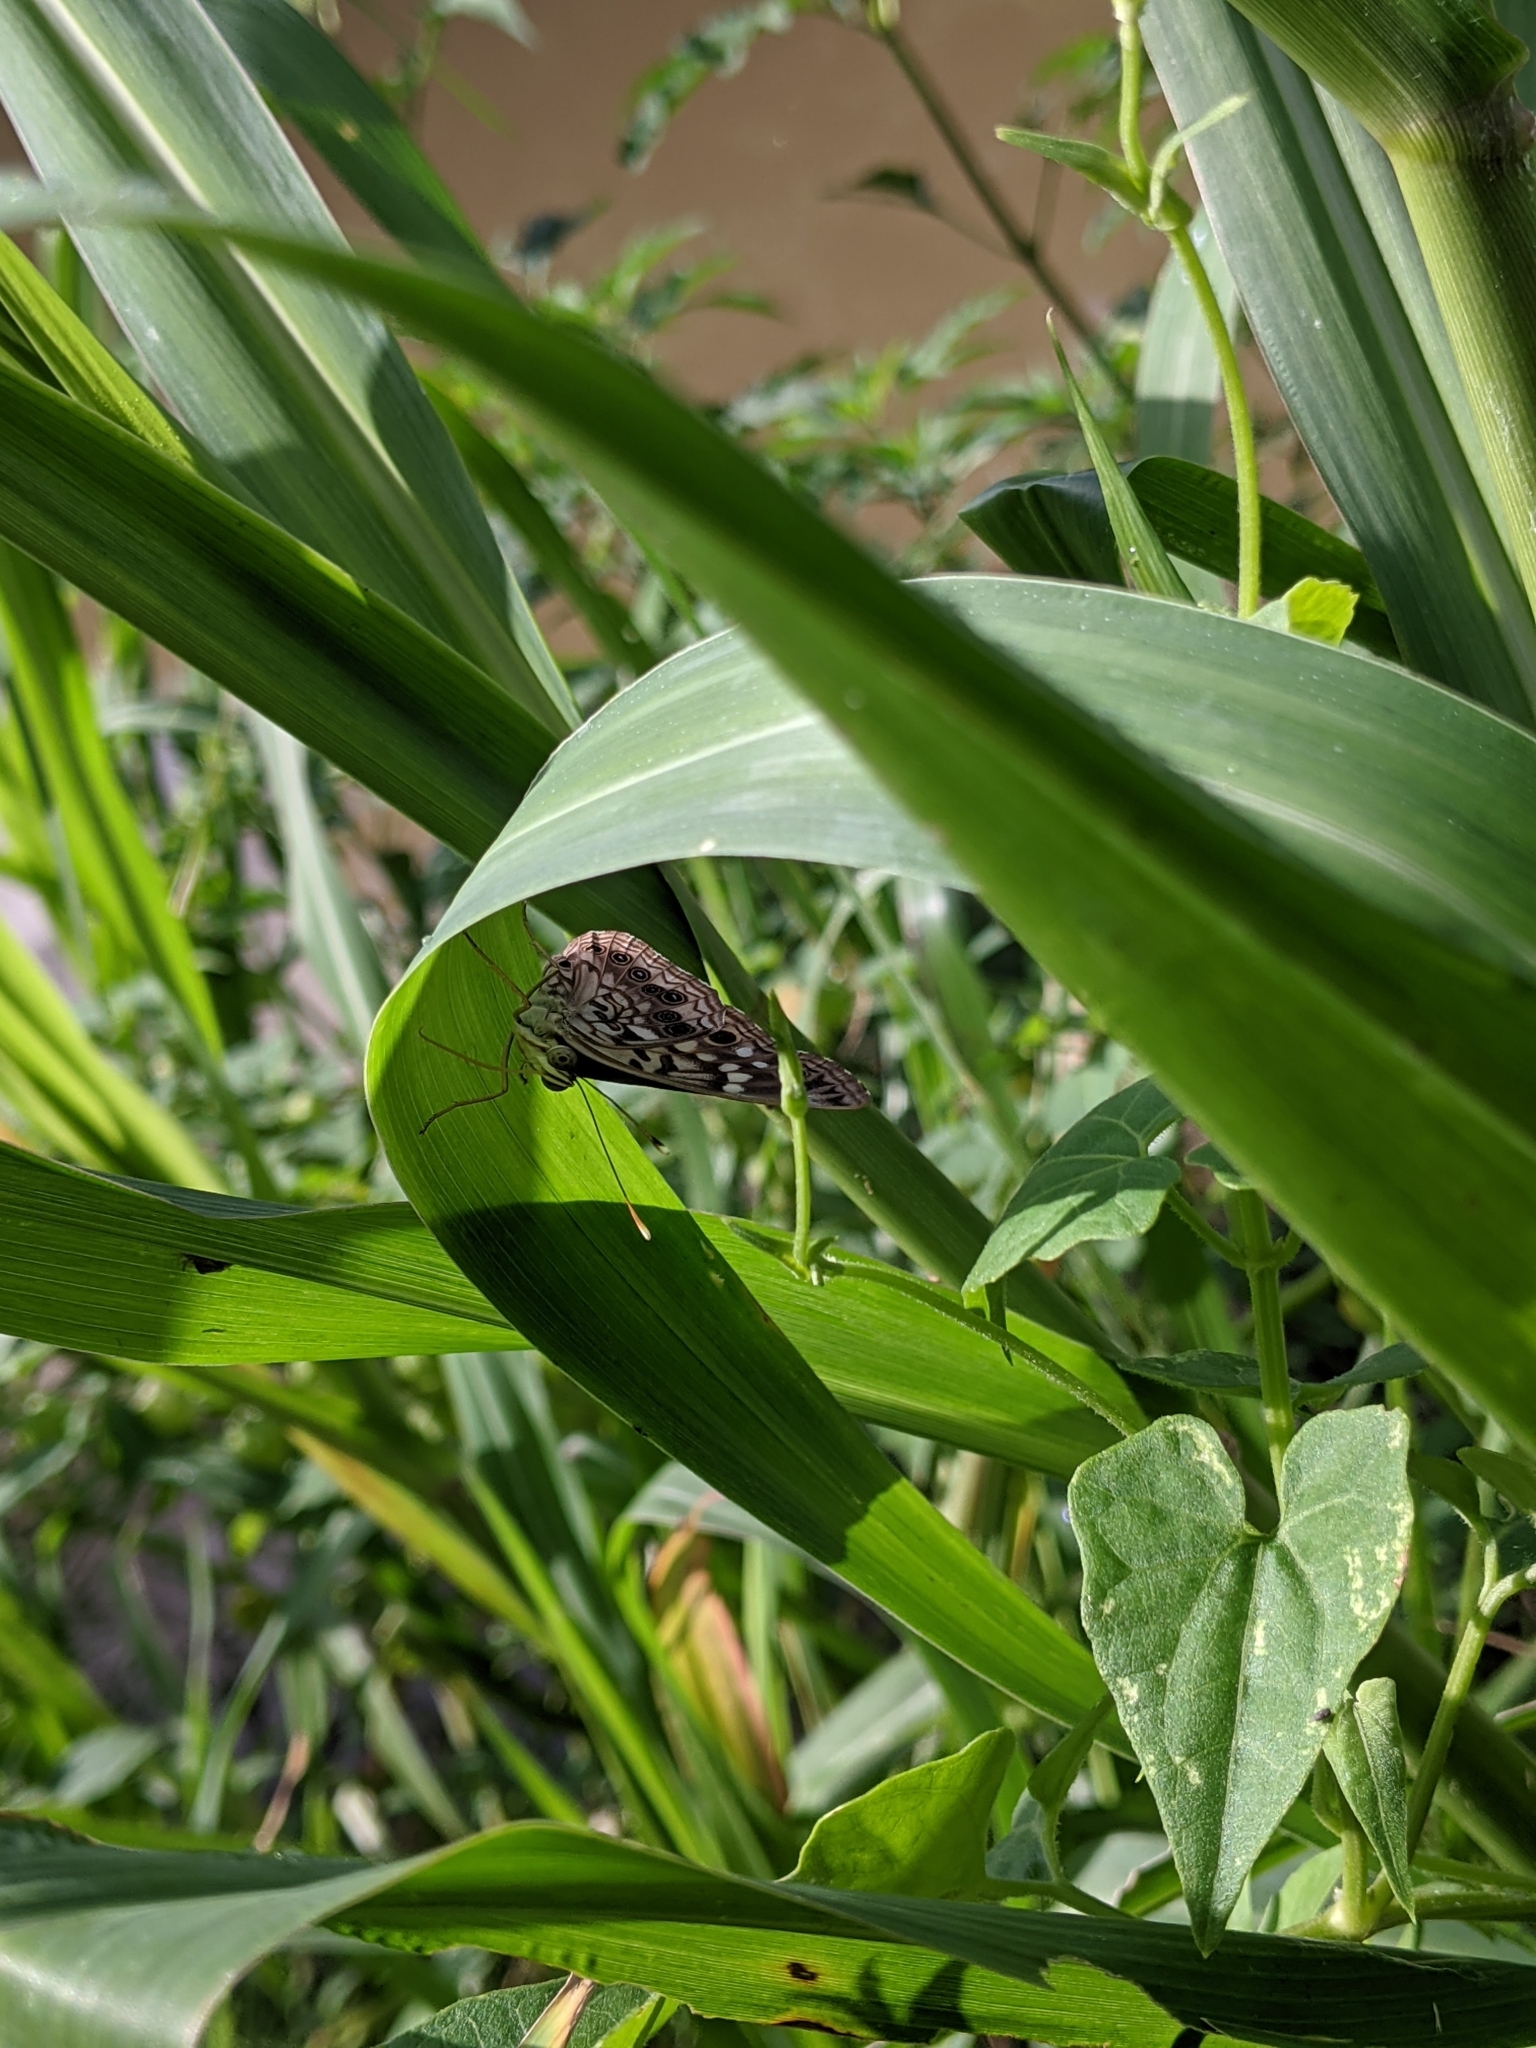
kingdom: Animalia
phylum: Arthropoda
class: Insecta
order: Lepidoptera
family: Nymphalidae
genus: Asterocampa
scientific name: Asterocampa celtis
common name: Hackberry emperor
